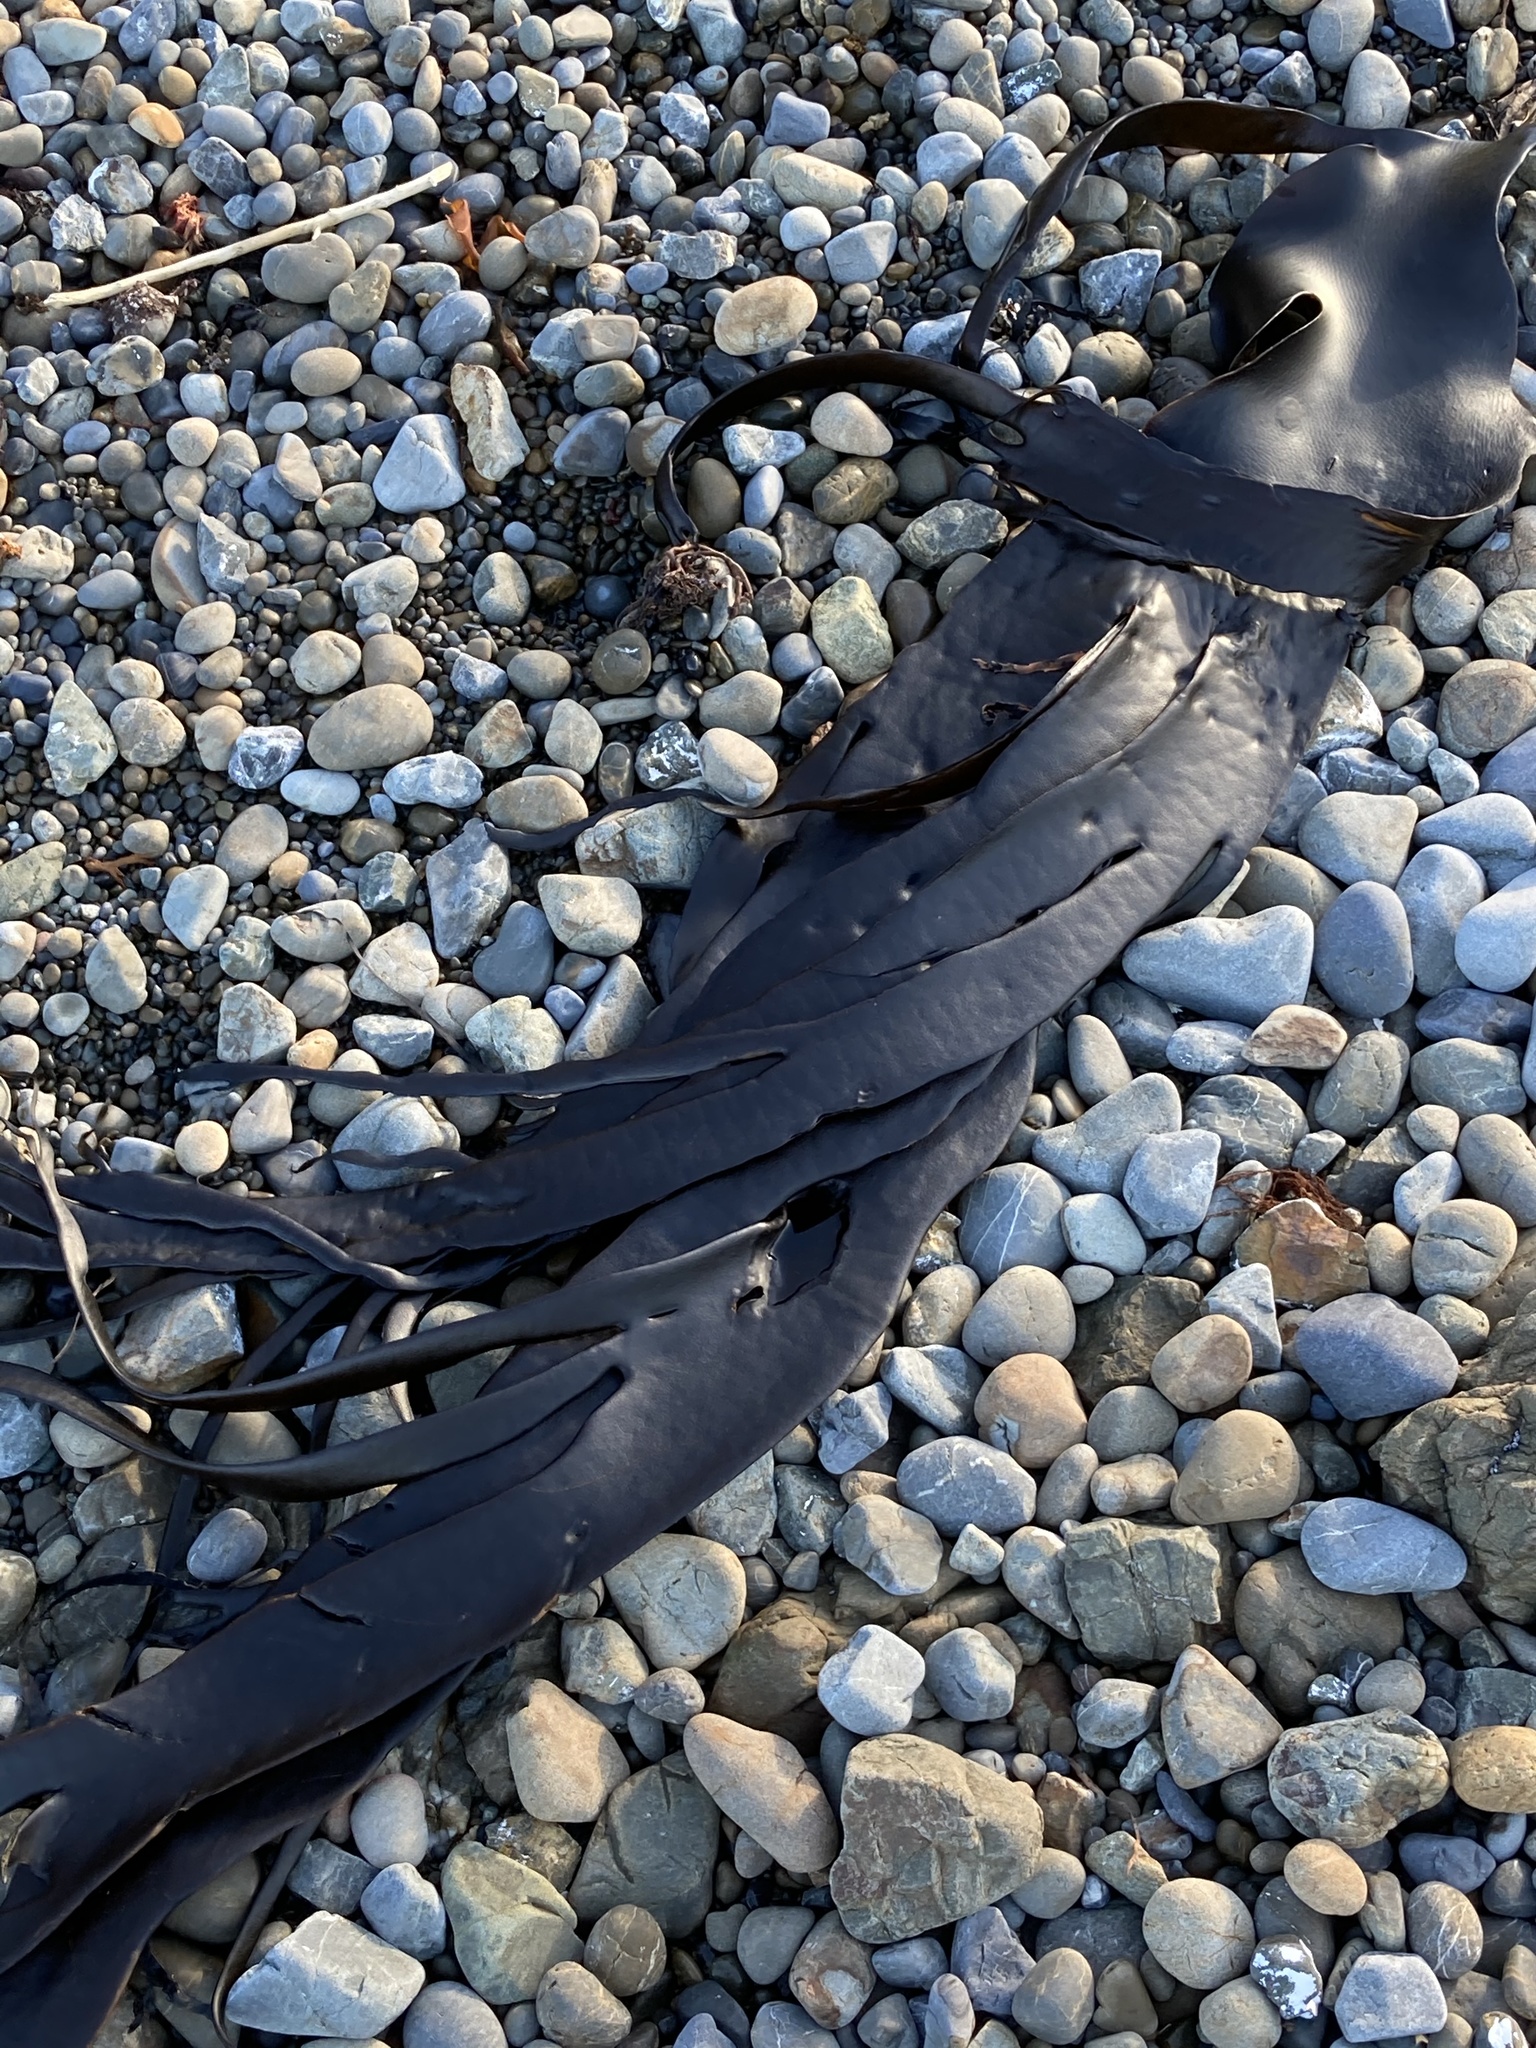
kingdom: Chromista
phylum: Ochrophyta
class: Phaeophyceae
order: Fucales
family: Durvillaeaceae
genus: Durvillaea
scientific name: Durvillaea antarctica
